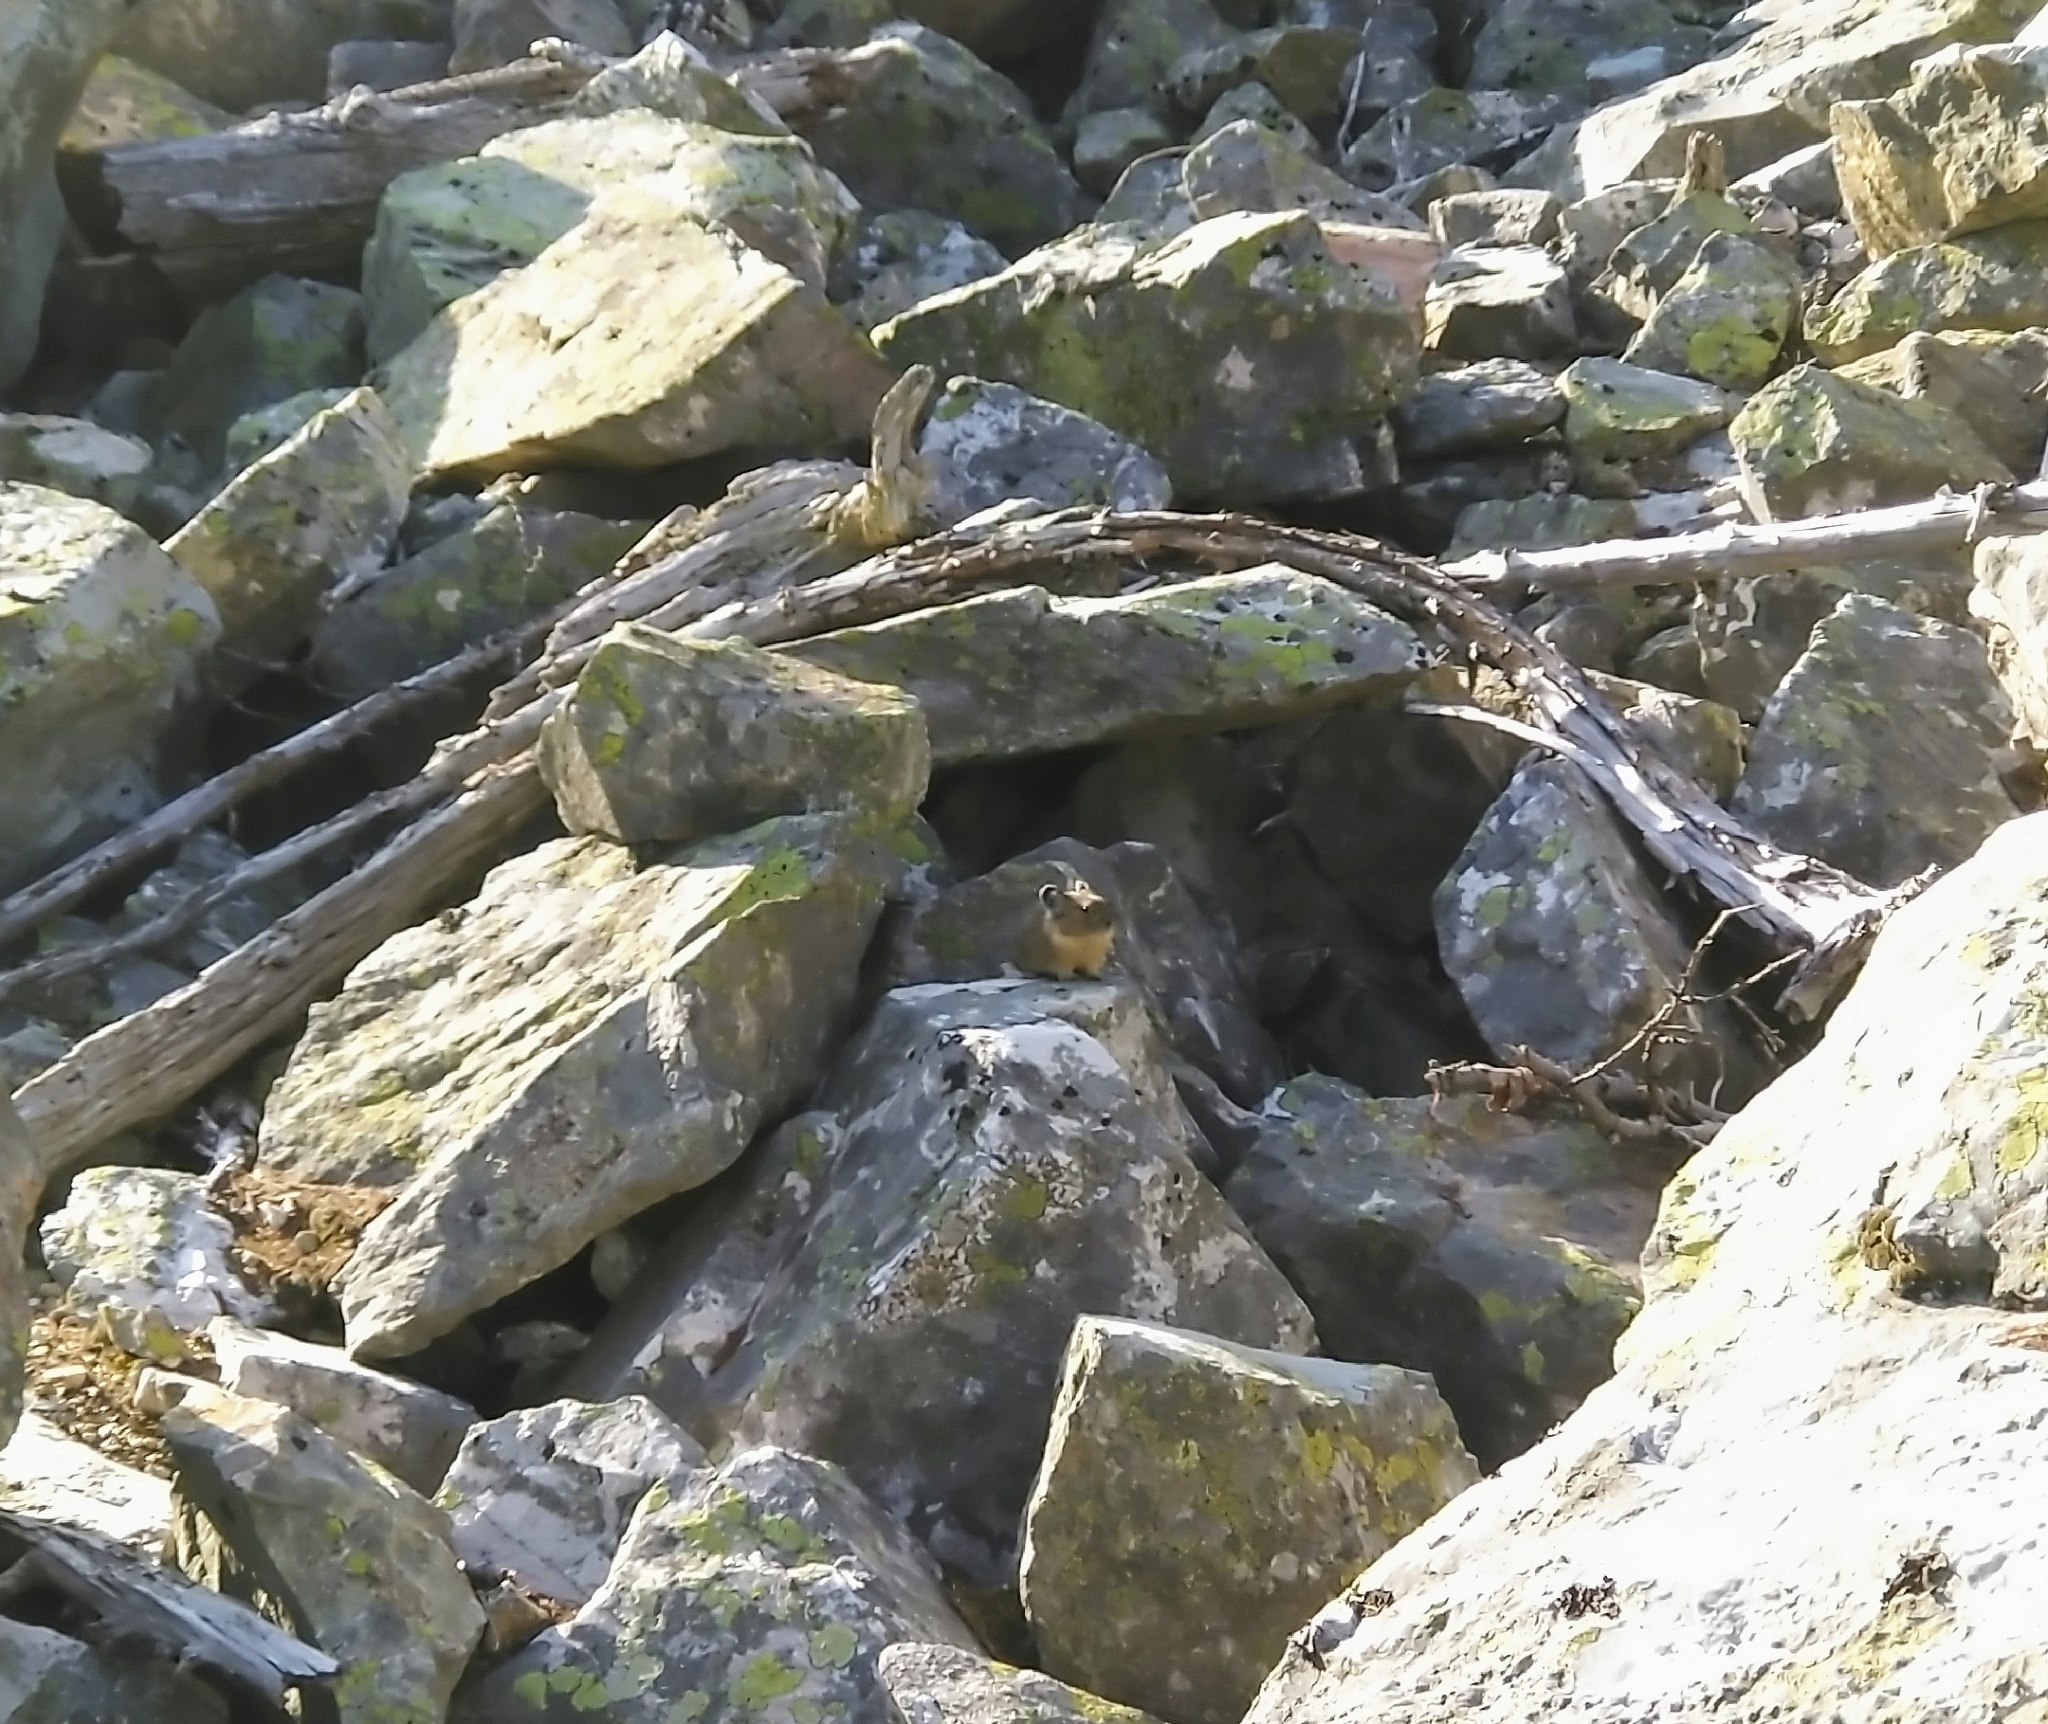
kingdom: Animalia
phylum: Chordata
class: Mammalia
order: Lagomorpha
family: Ochotonidae
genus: Ochotona
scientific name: Ochotona princeps
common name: American pika
